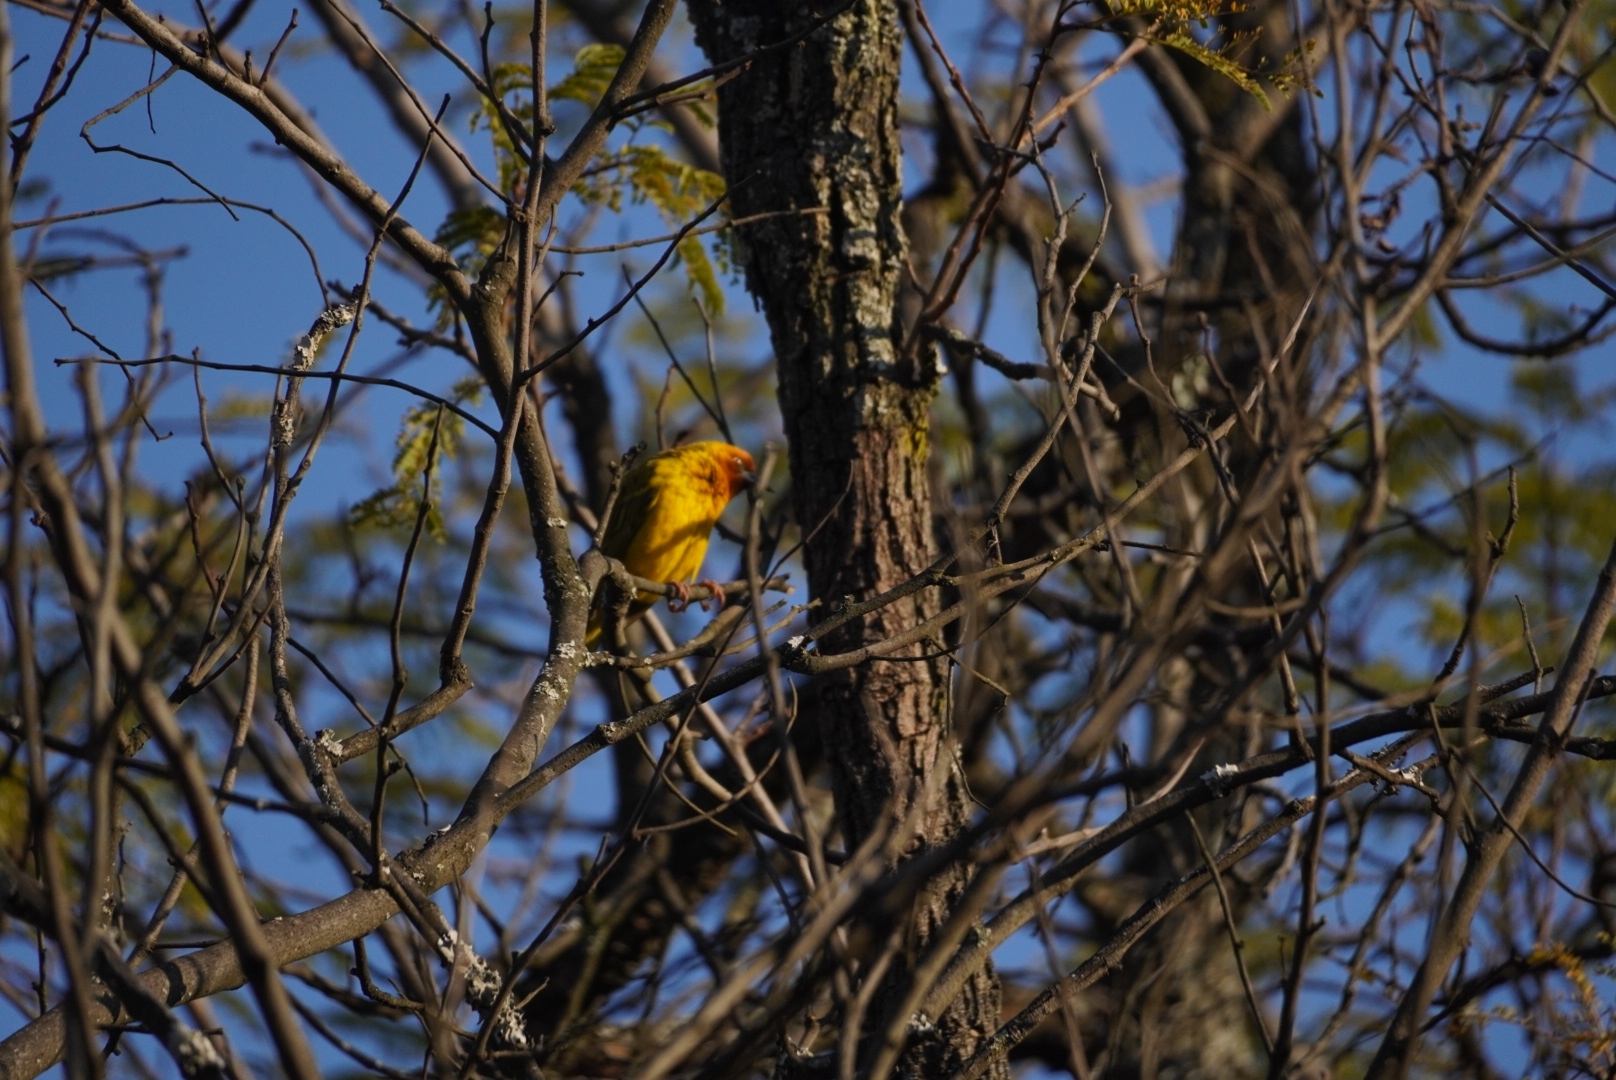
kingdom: Animalia
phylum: Chordata
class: Aves
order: Passeriformes
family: Ploceidae
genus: Ploceus
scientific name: Ploceus capensis
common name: Cape weaver
